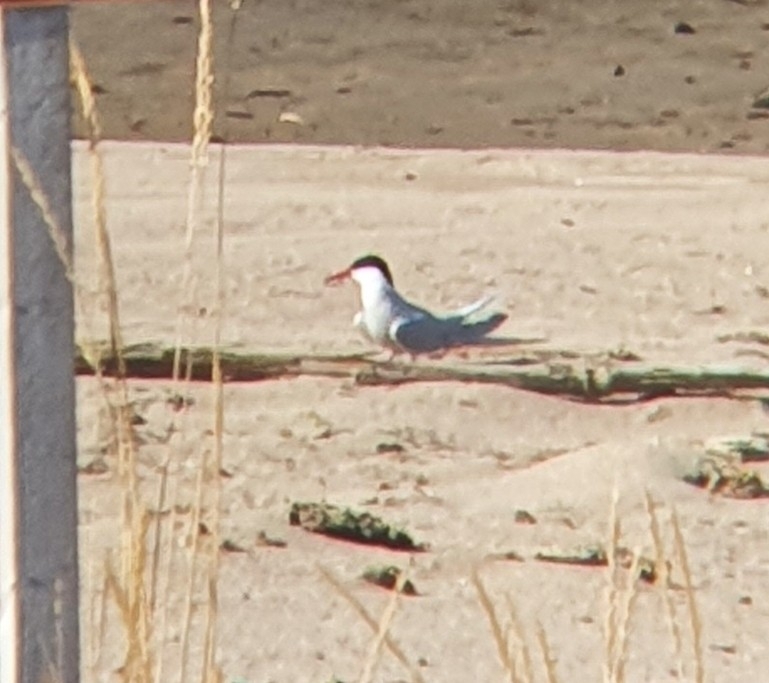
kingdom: Animalia
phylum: Chordata
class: Aves
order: Charadriiformes
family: Laridae
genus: Sterna
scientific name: Sterna hirundo
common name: Common tern
